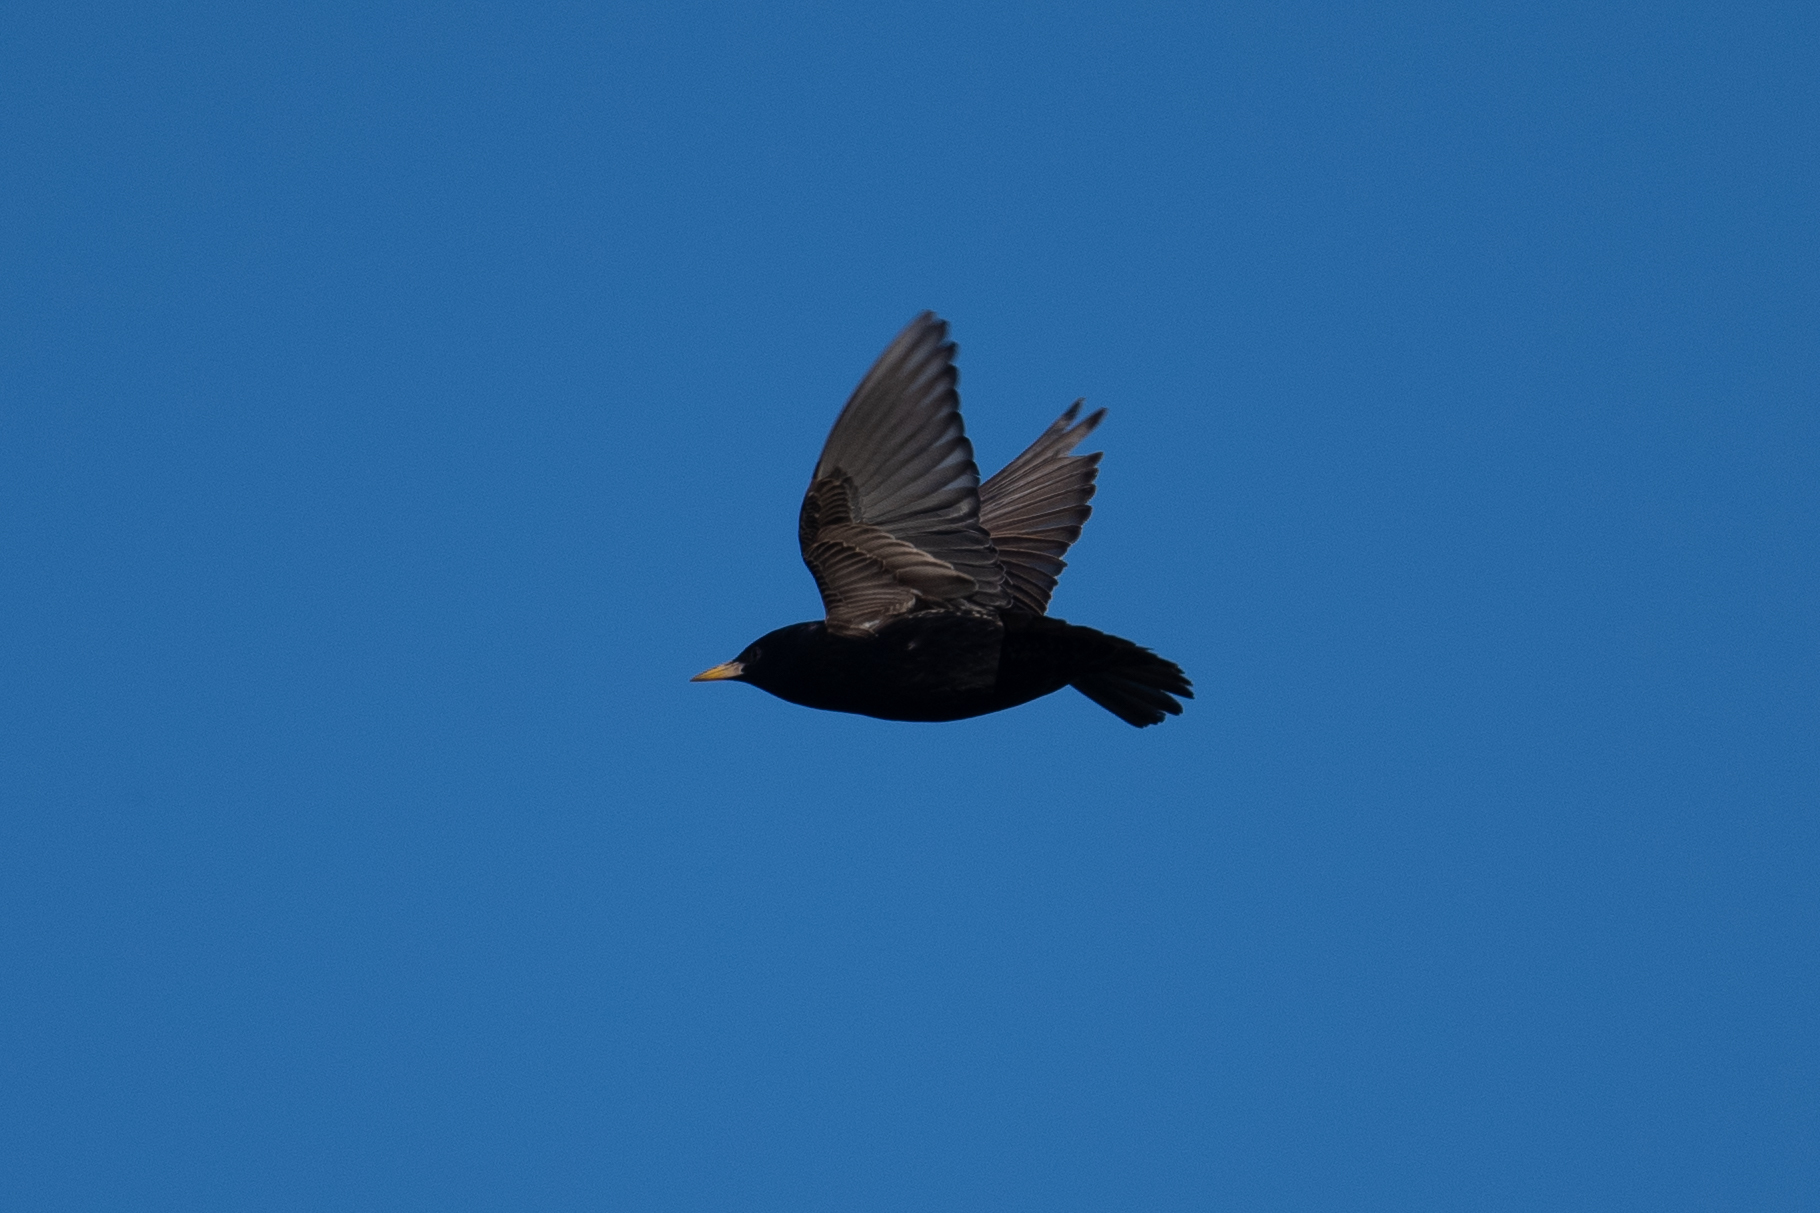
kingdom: Animalia
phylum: Chordata
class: Aves
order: Passeriformes
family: Sturnidae
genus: Sturnus
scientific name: Sturnus vulgaris
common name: Common starling
